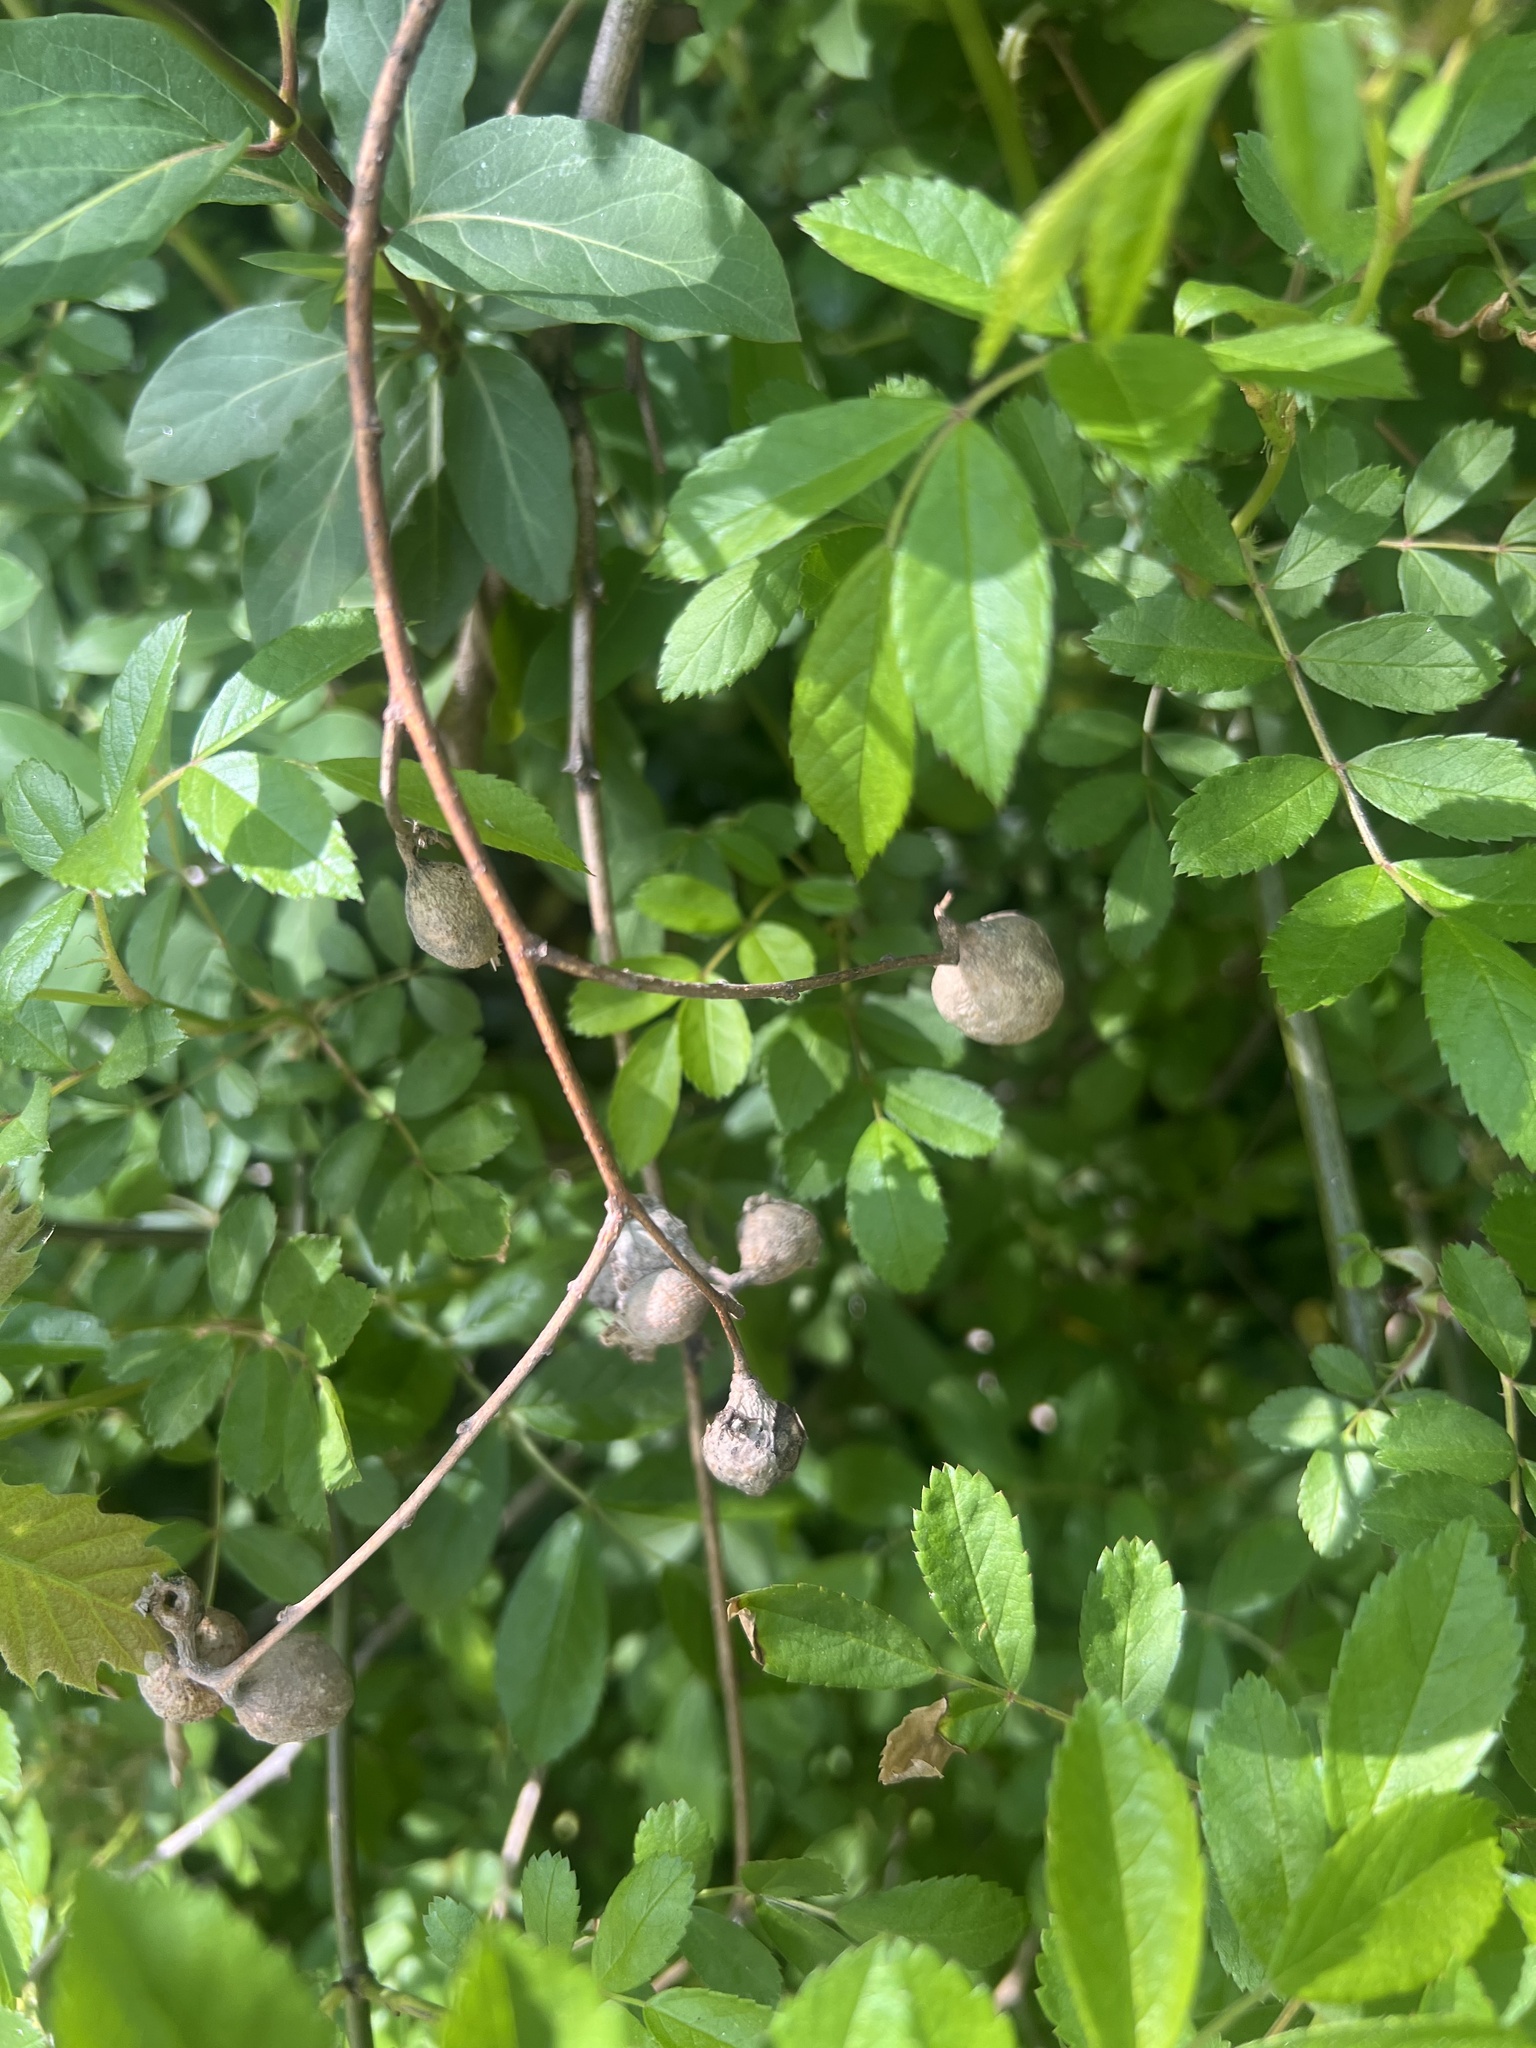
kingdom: Animalia
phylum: Arthropoda
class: Insecta
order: Hemiptera
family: Aphalaridae
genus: Pachypsylla
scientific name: Pachypsylla venusta
